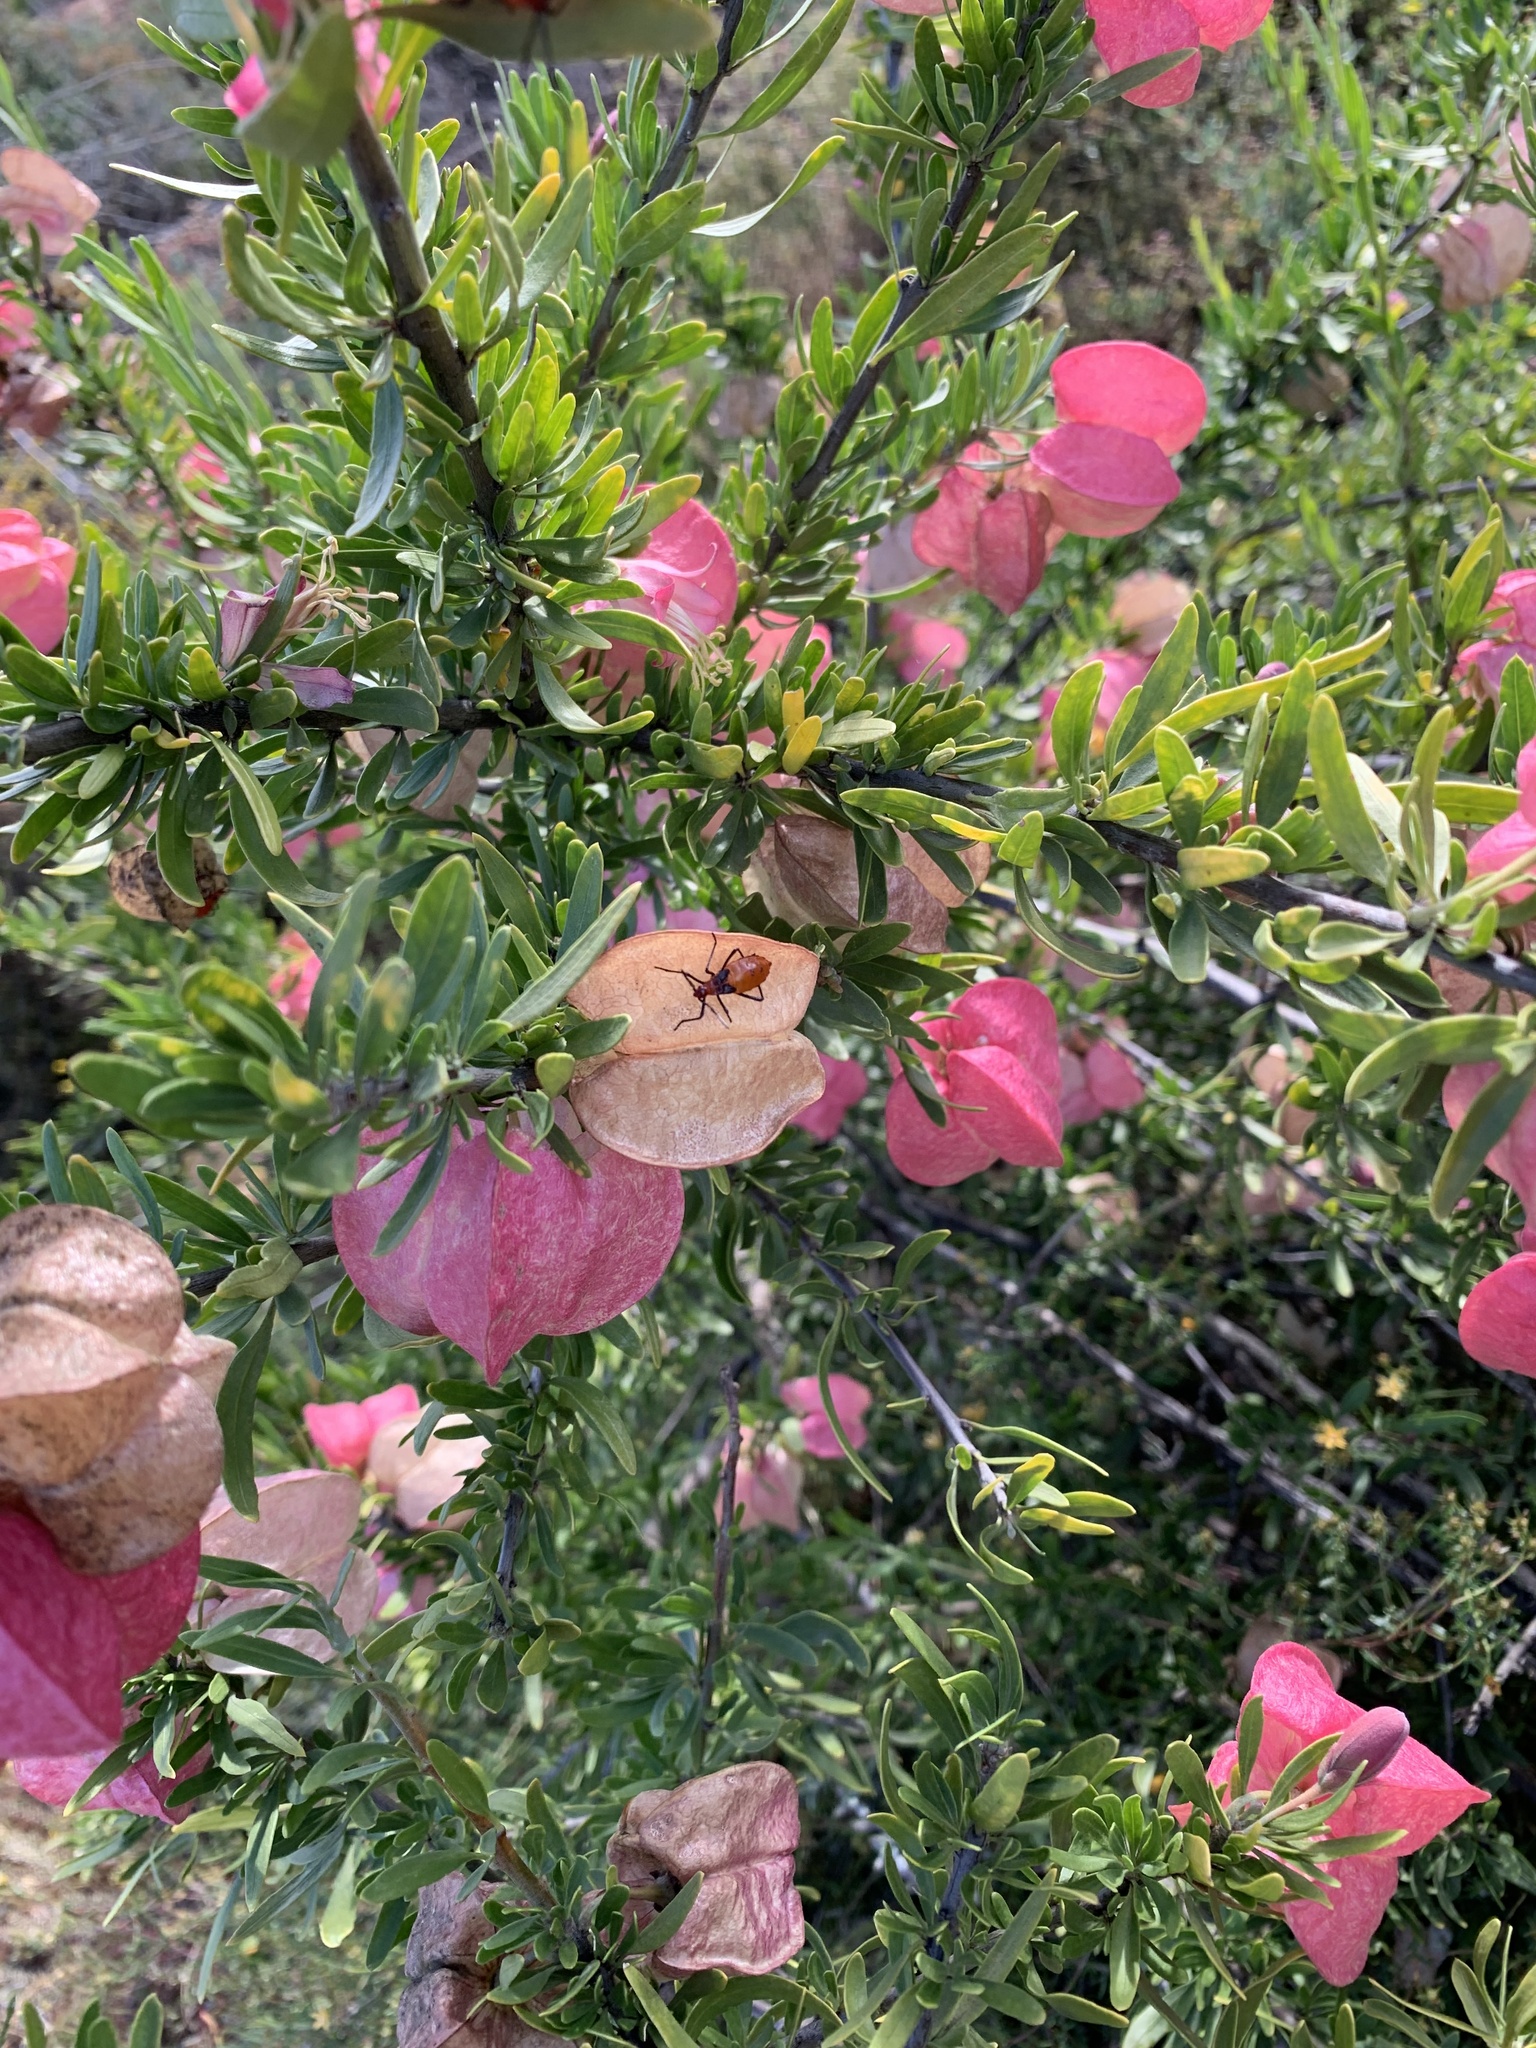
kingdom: Plantae
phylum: Tracheophyta
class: Magnoliopsida
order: Sapindales
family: Meliaceae
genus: Nymania
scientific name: Nymania capensis
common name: Chinese lantern tree
